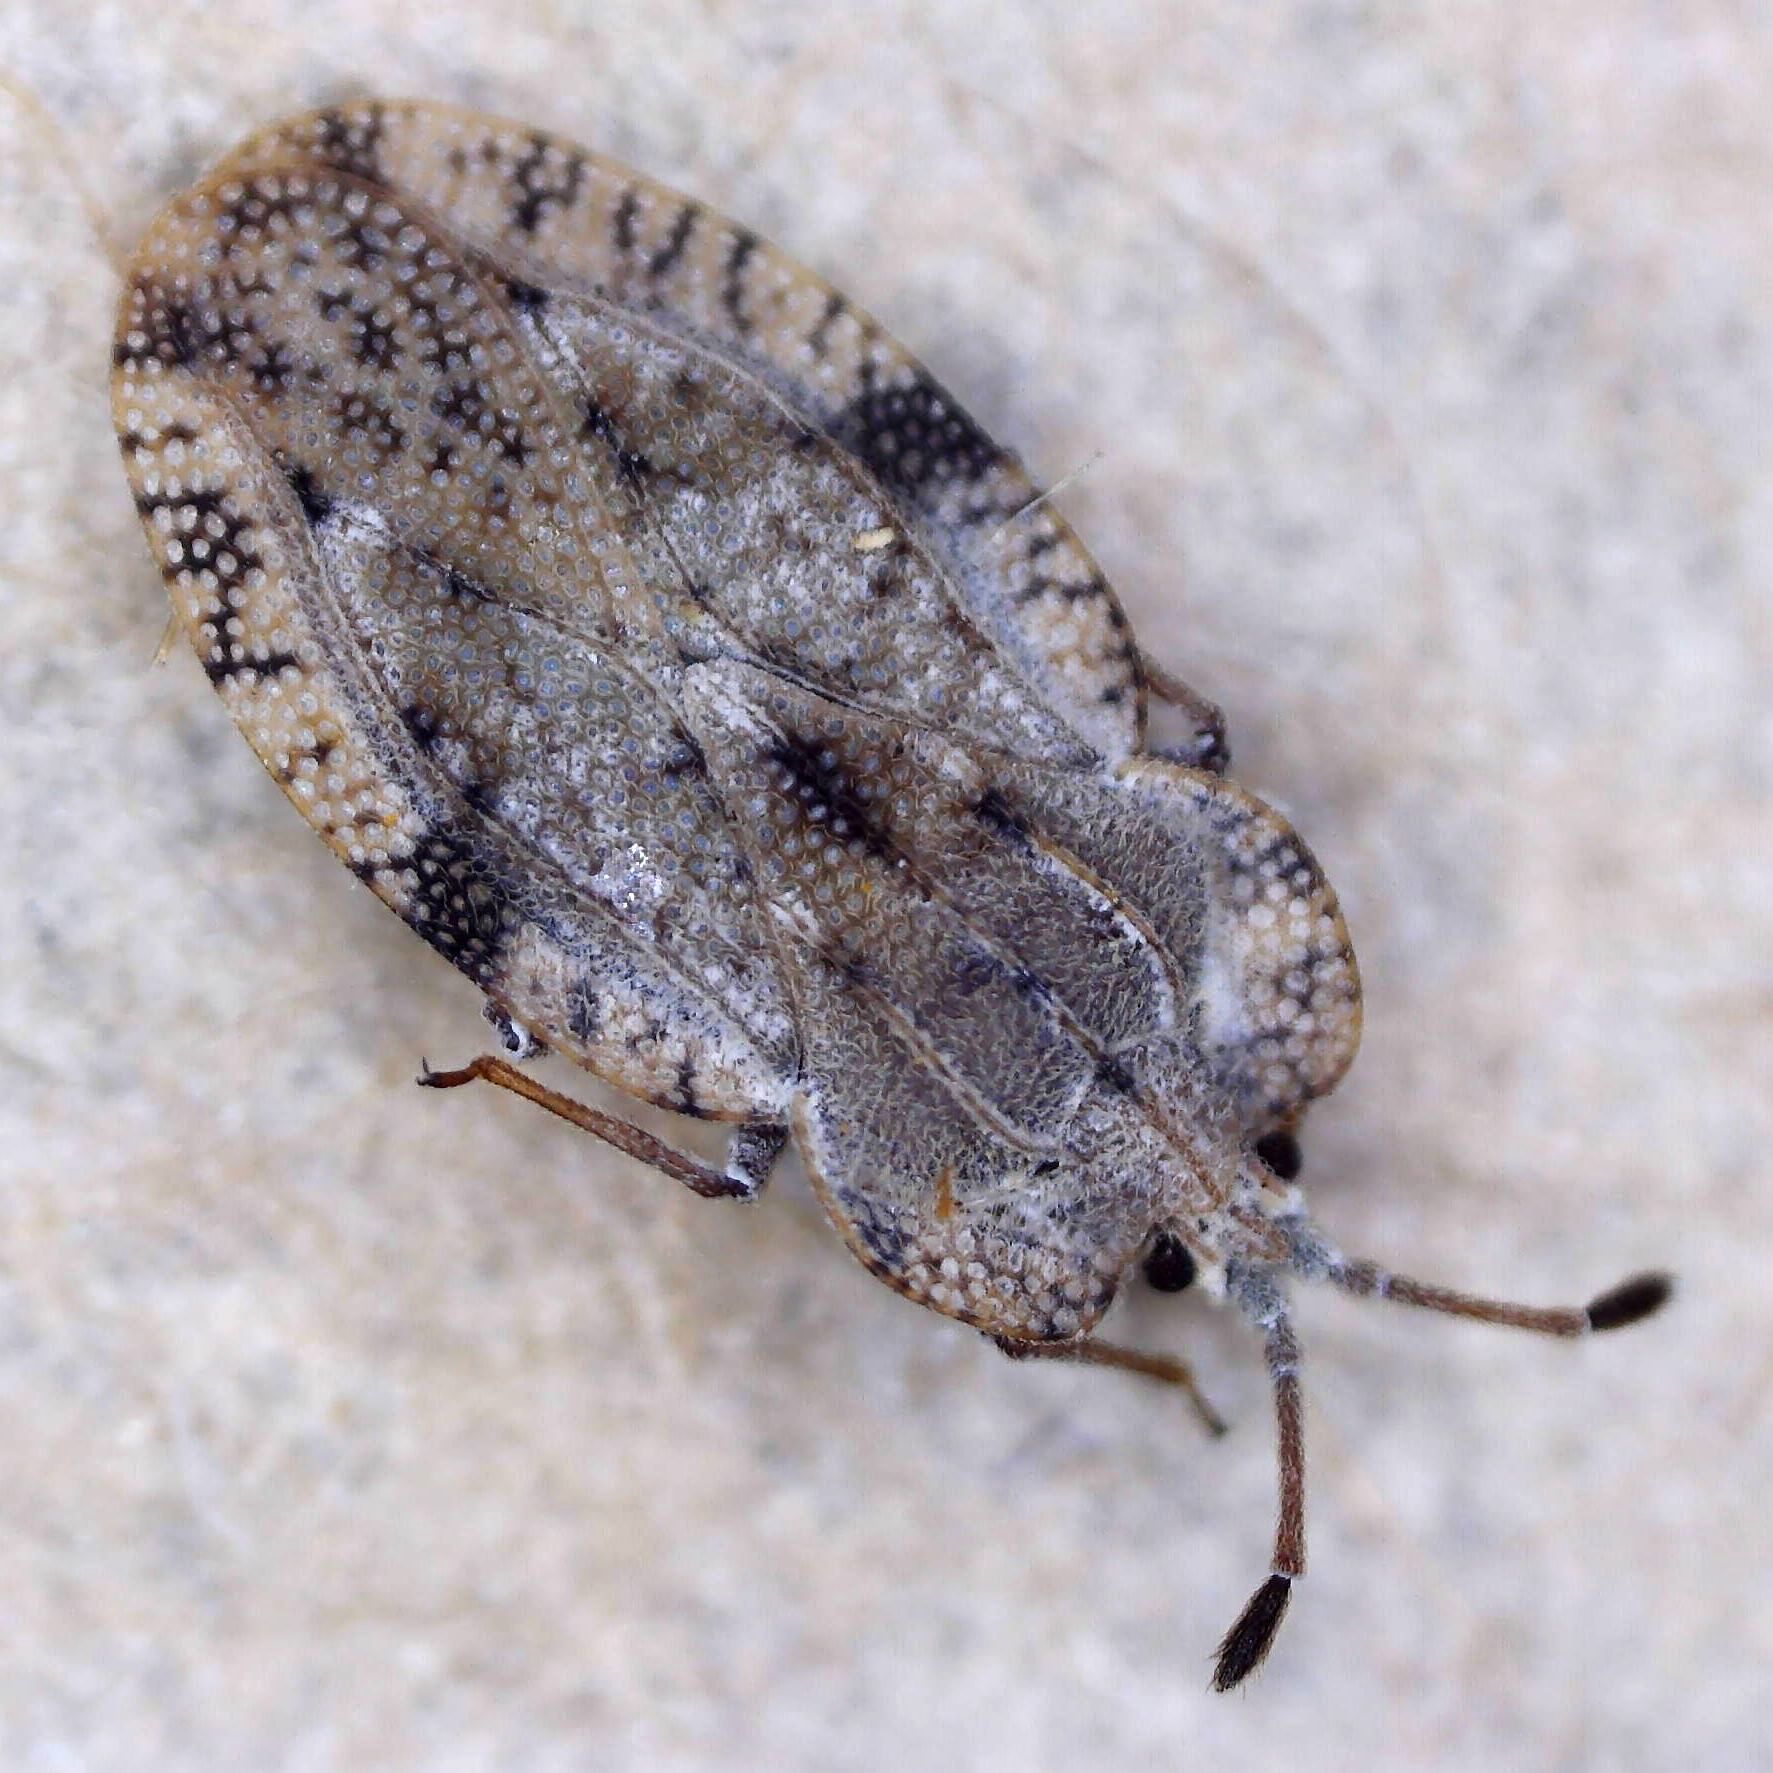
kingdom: Animalia
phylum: Arthropoda
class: Insecta
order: Hemiptera
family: Tingidae
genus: Tingis
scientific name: Tingis ampliata
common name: Creeping thistle lacebug
